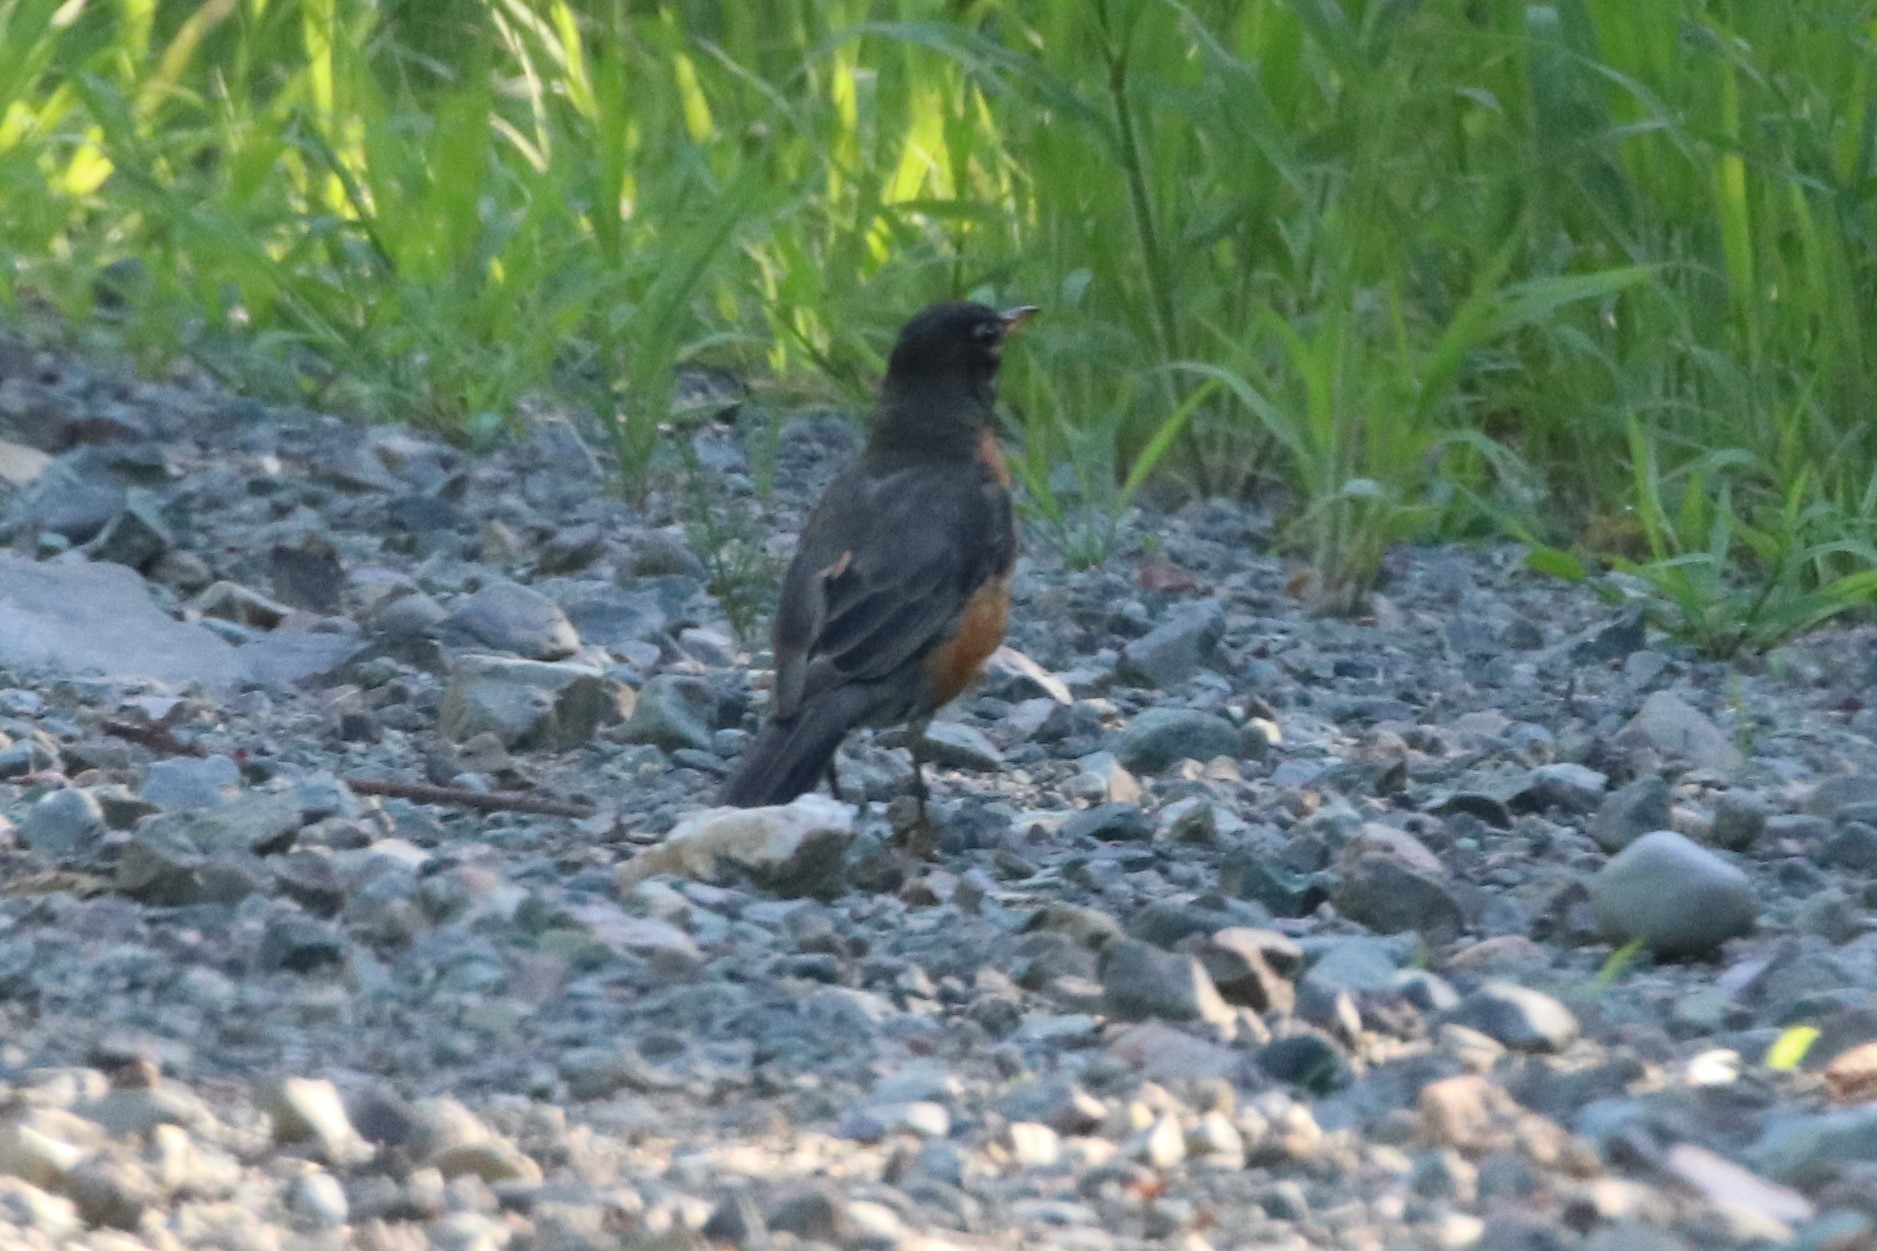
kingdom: Animalia
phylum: Chordata
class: Aves
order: Passeriformes
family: Turdidae
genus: Turdus
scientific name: Turdus migratorius
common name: American robin
